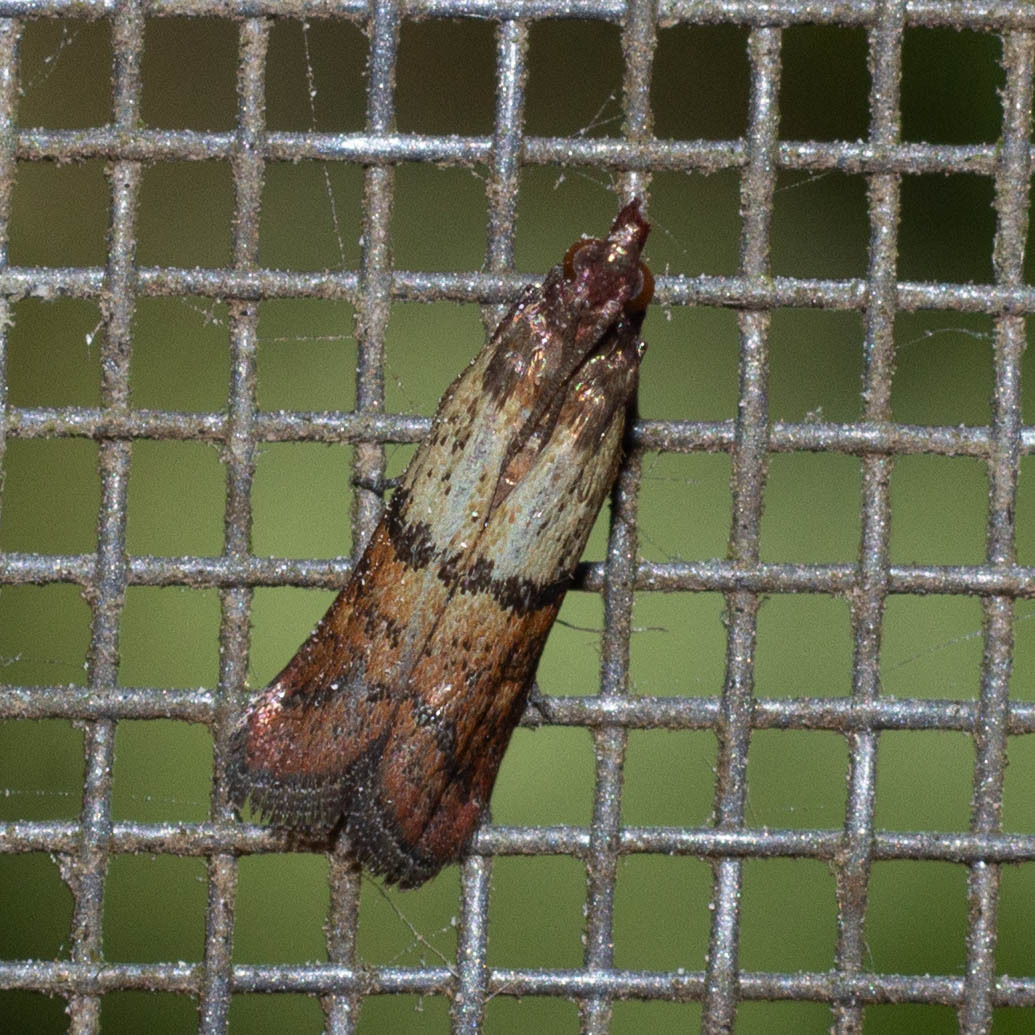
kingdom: Animalia
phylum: Arthropoda
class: Insecta
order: Lepidoptera
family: Pyralidae
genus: Plodia
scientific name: Plodia interpunctella
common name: Indian meal moth
